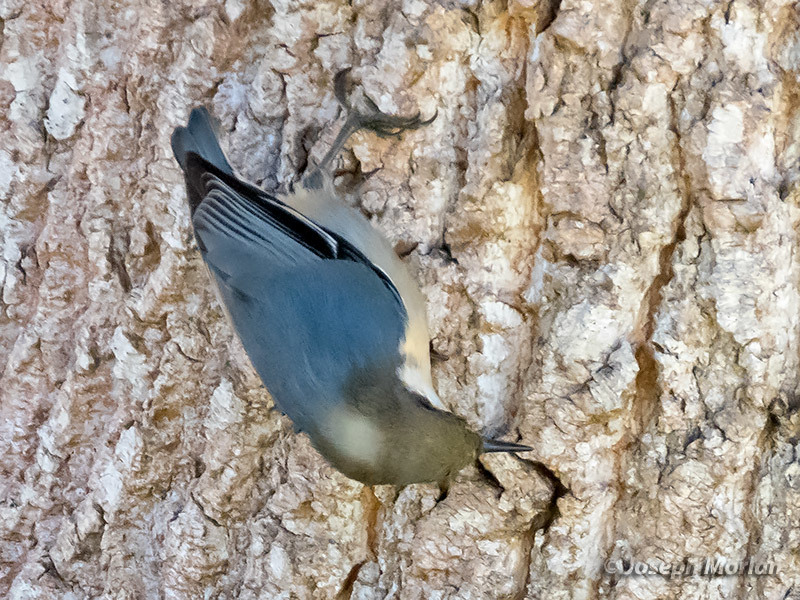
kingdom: Animalia
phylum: Chordata
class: Aves
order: Passeriformes
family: Sittidae
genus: Sitta
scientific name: Sitta pygmaea
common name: Pygmy nuthatch
